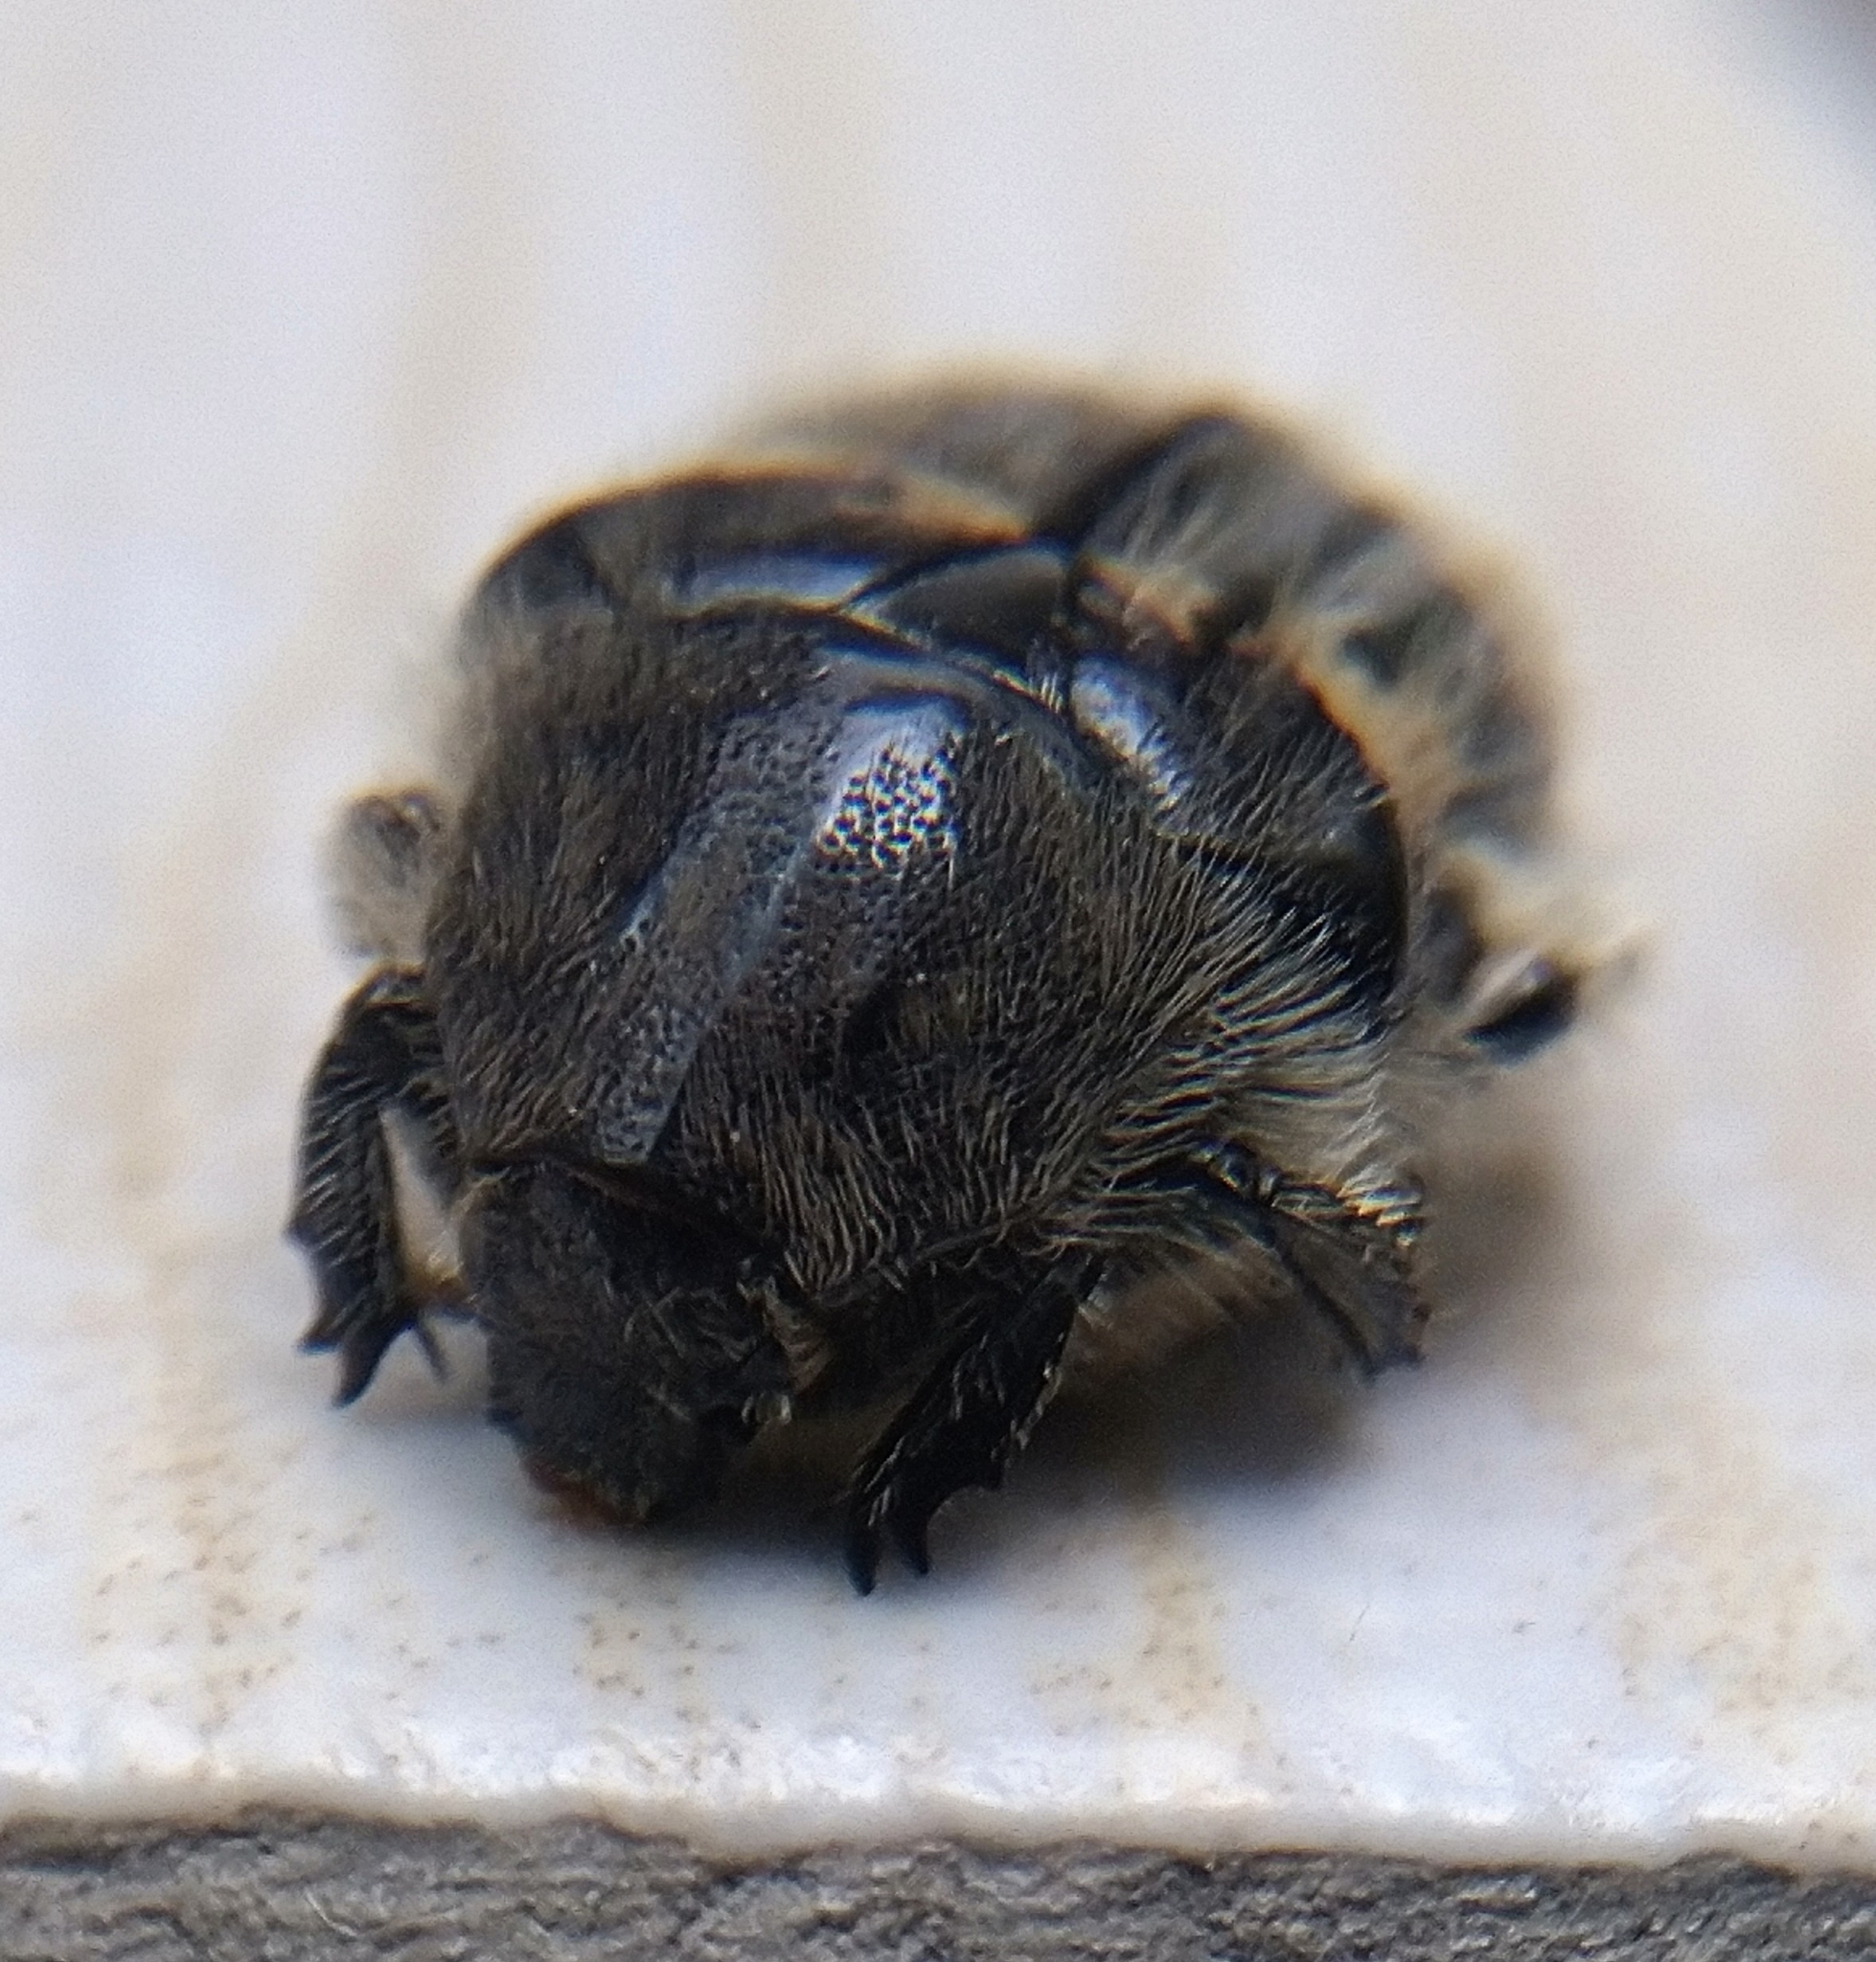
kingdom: Animalia
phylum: Arthropoda
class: Insecta
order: Coleoptera
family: Scarabaeidae
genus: Euphoria
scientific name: Euphoria basalis
